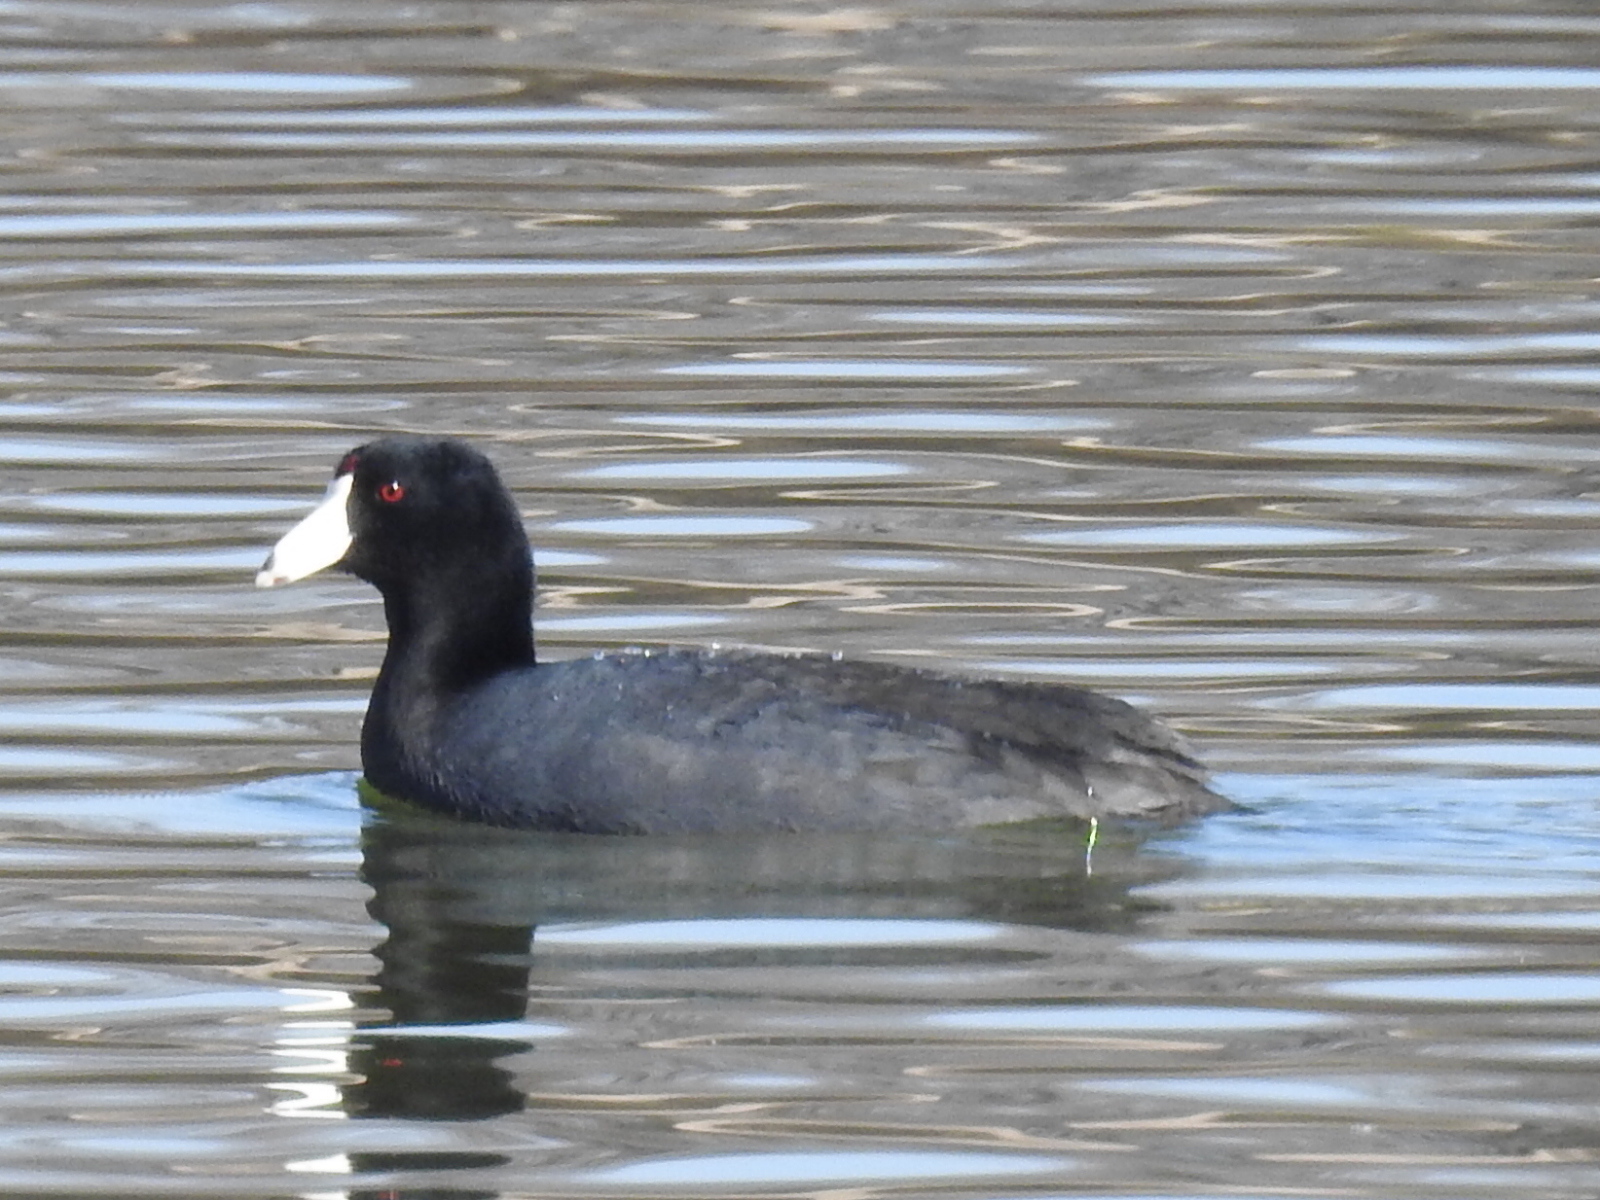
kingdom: Animalia
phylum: Chordata
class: Aves
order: Gruiformes
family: Rallidae
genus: Fulica
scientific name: Fulica americana
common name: American coot
